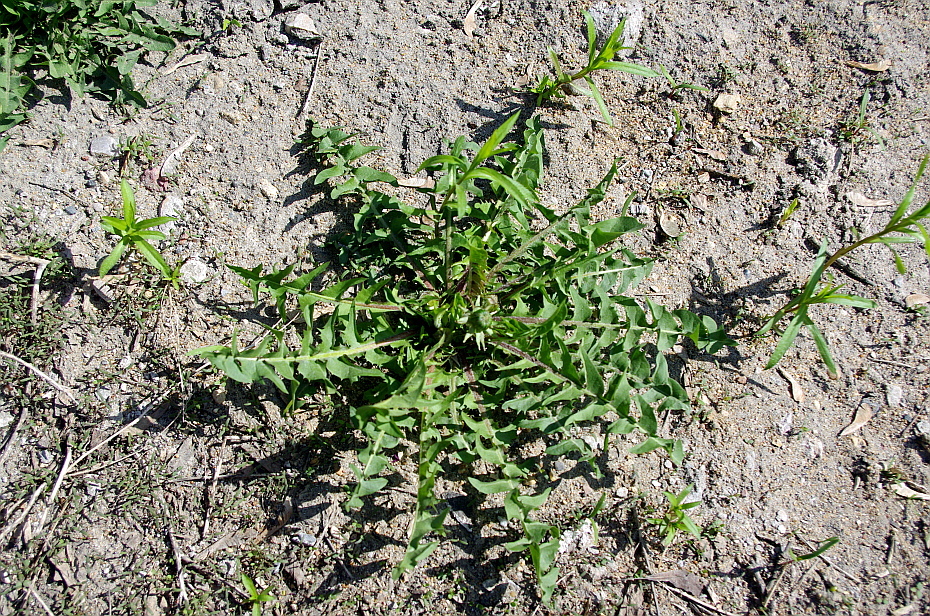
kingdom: Plantae
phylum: Tracheophyta
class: Magnoliopsida
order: Asterales
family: Asteraceae
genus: Taraxacum
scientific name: Taraxacum officinale
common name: Common dandelion
